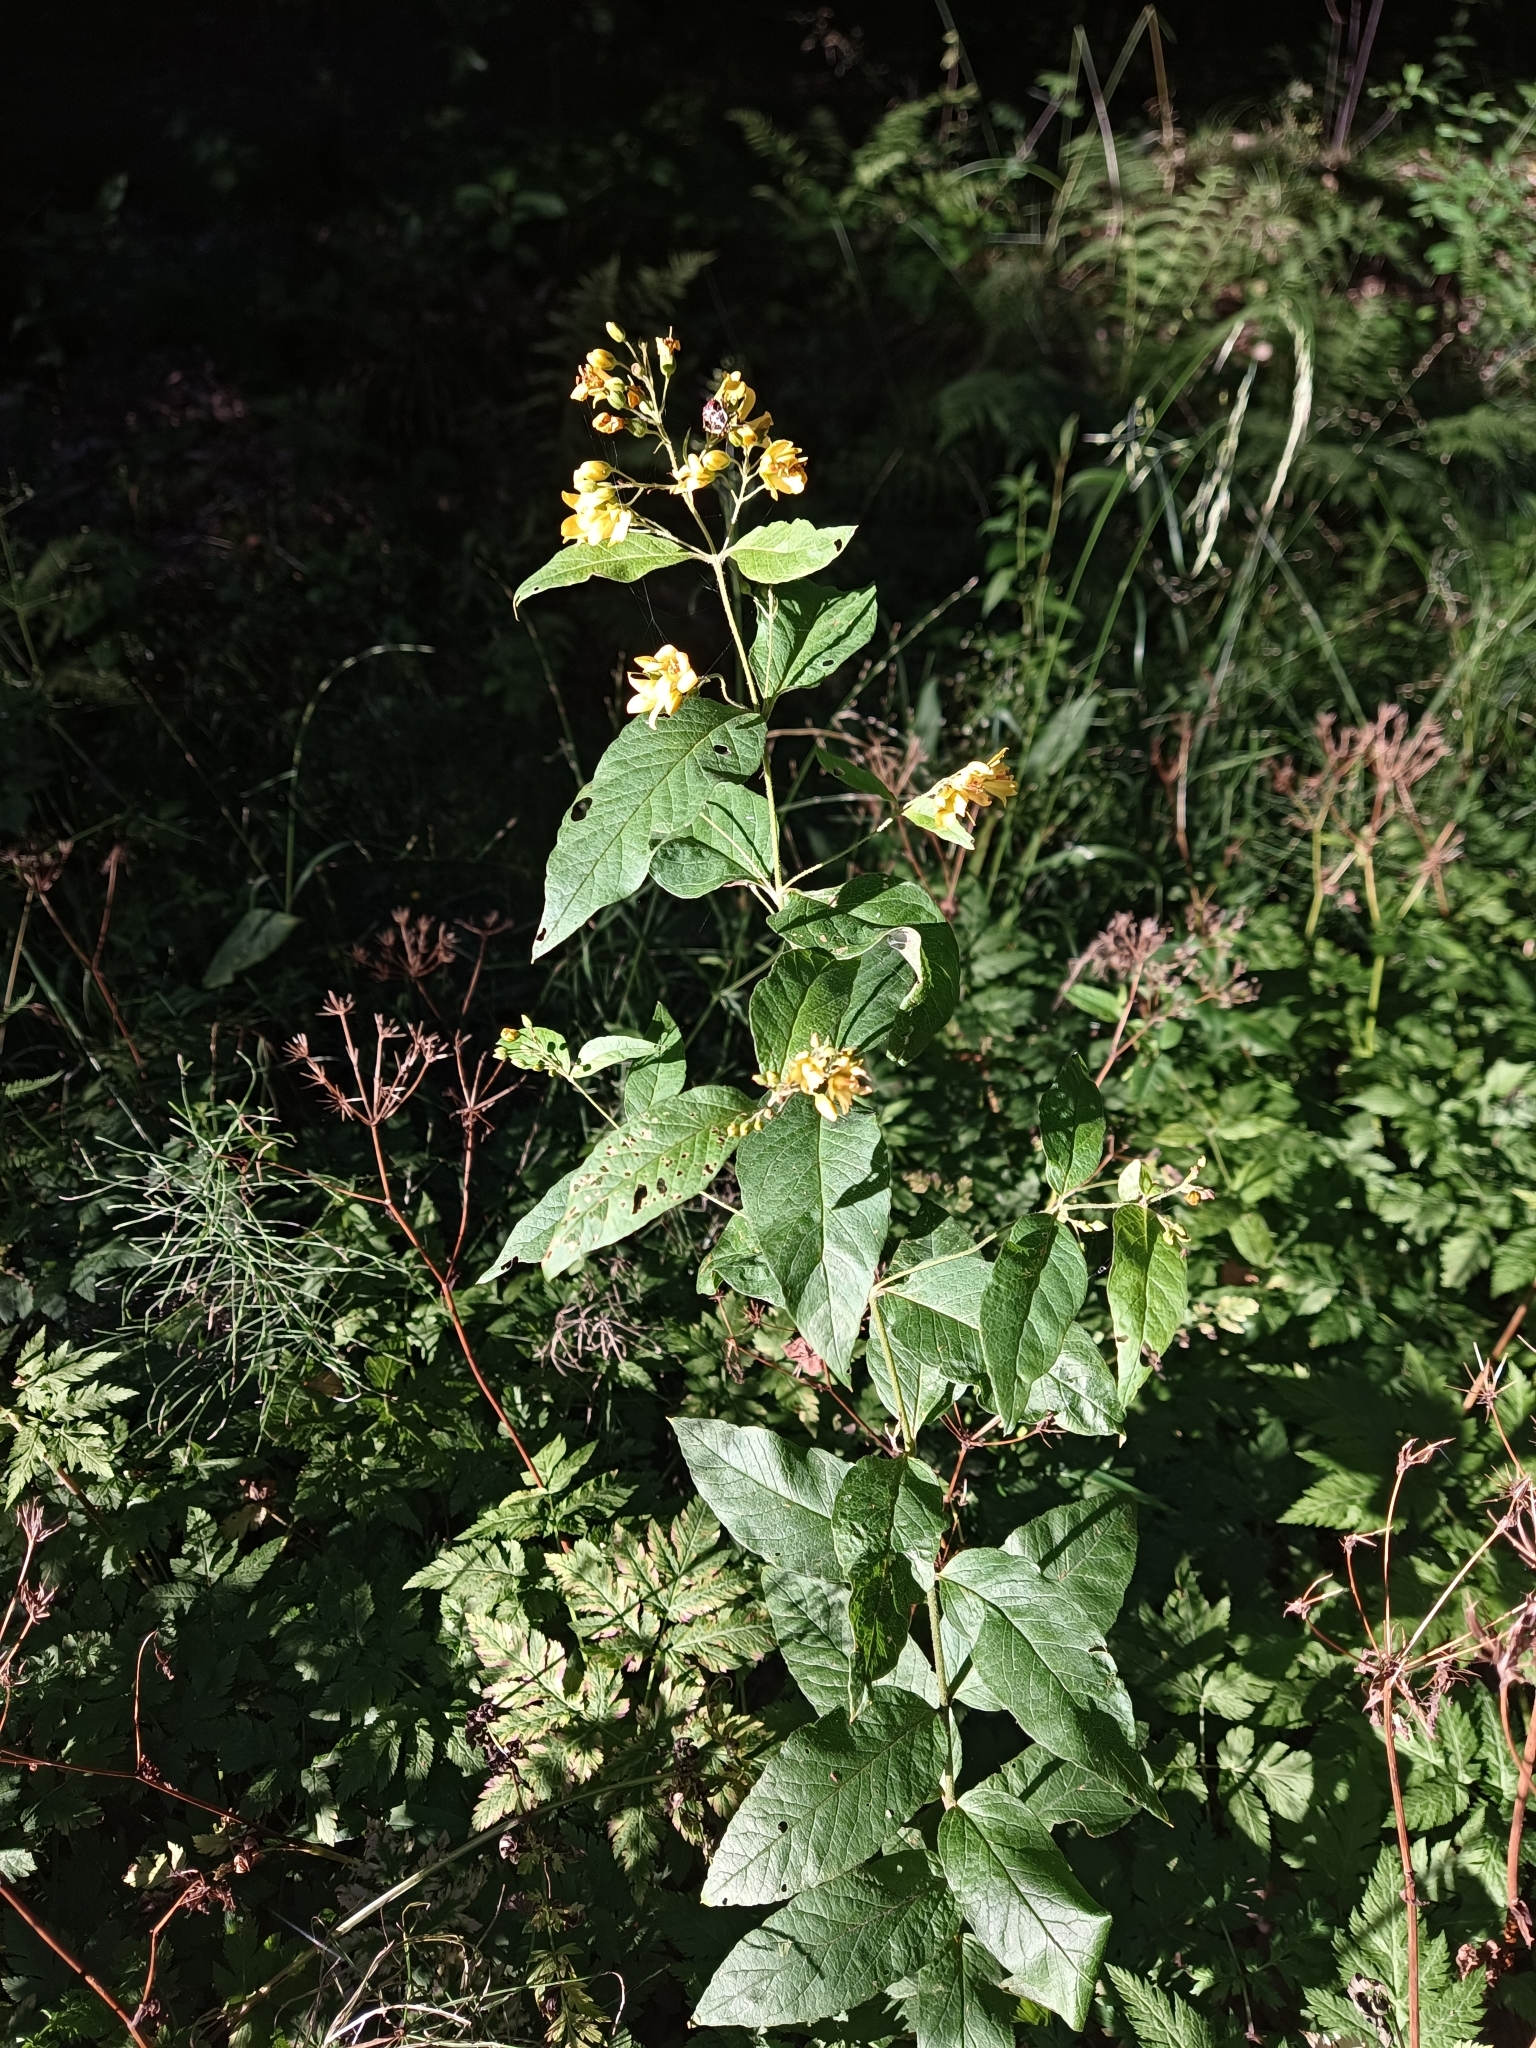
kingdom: Plantae
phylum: Tracheophyta
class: Magnoliopsida
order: Ericales
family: Primulaceae
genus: Lysimachia
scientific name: Lysimachia vulgaris
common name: Yellow loosestrife
